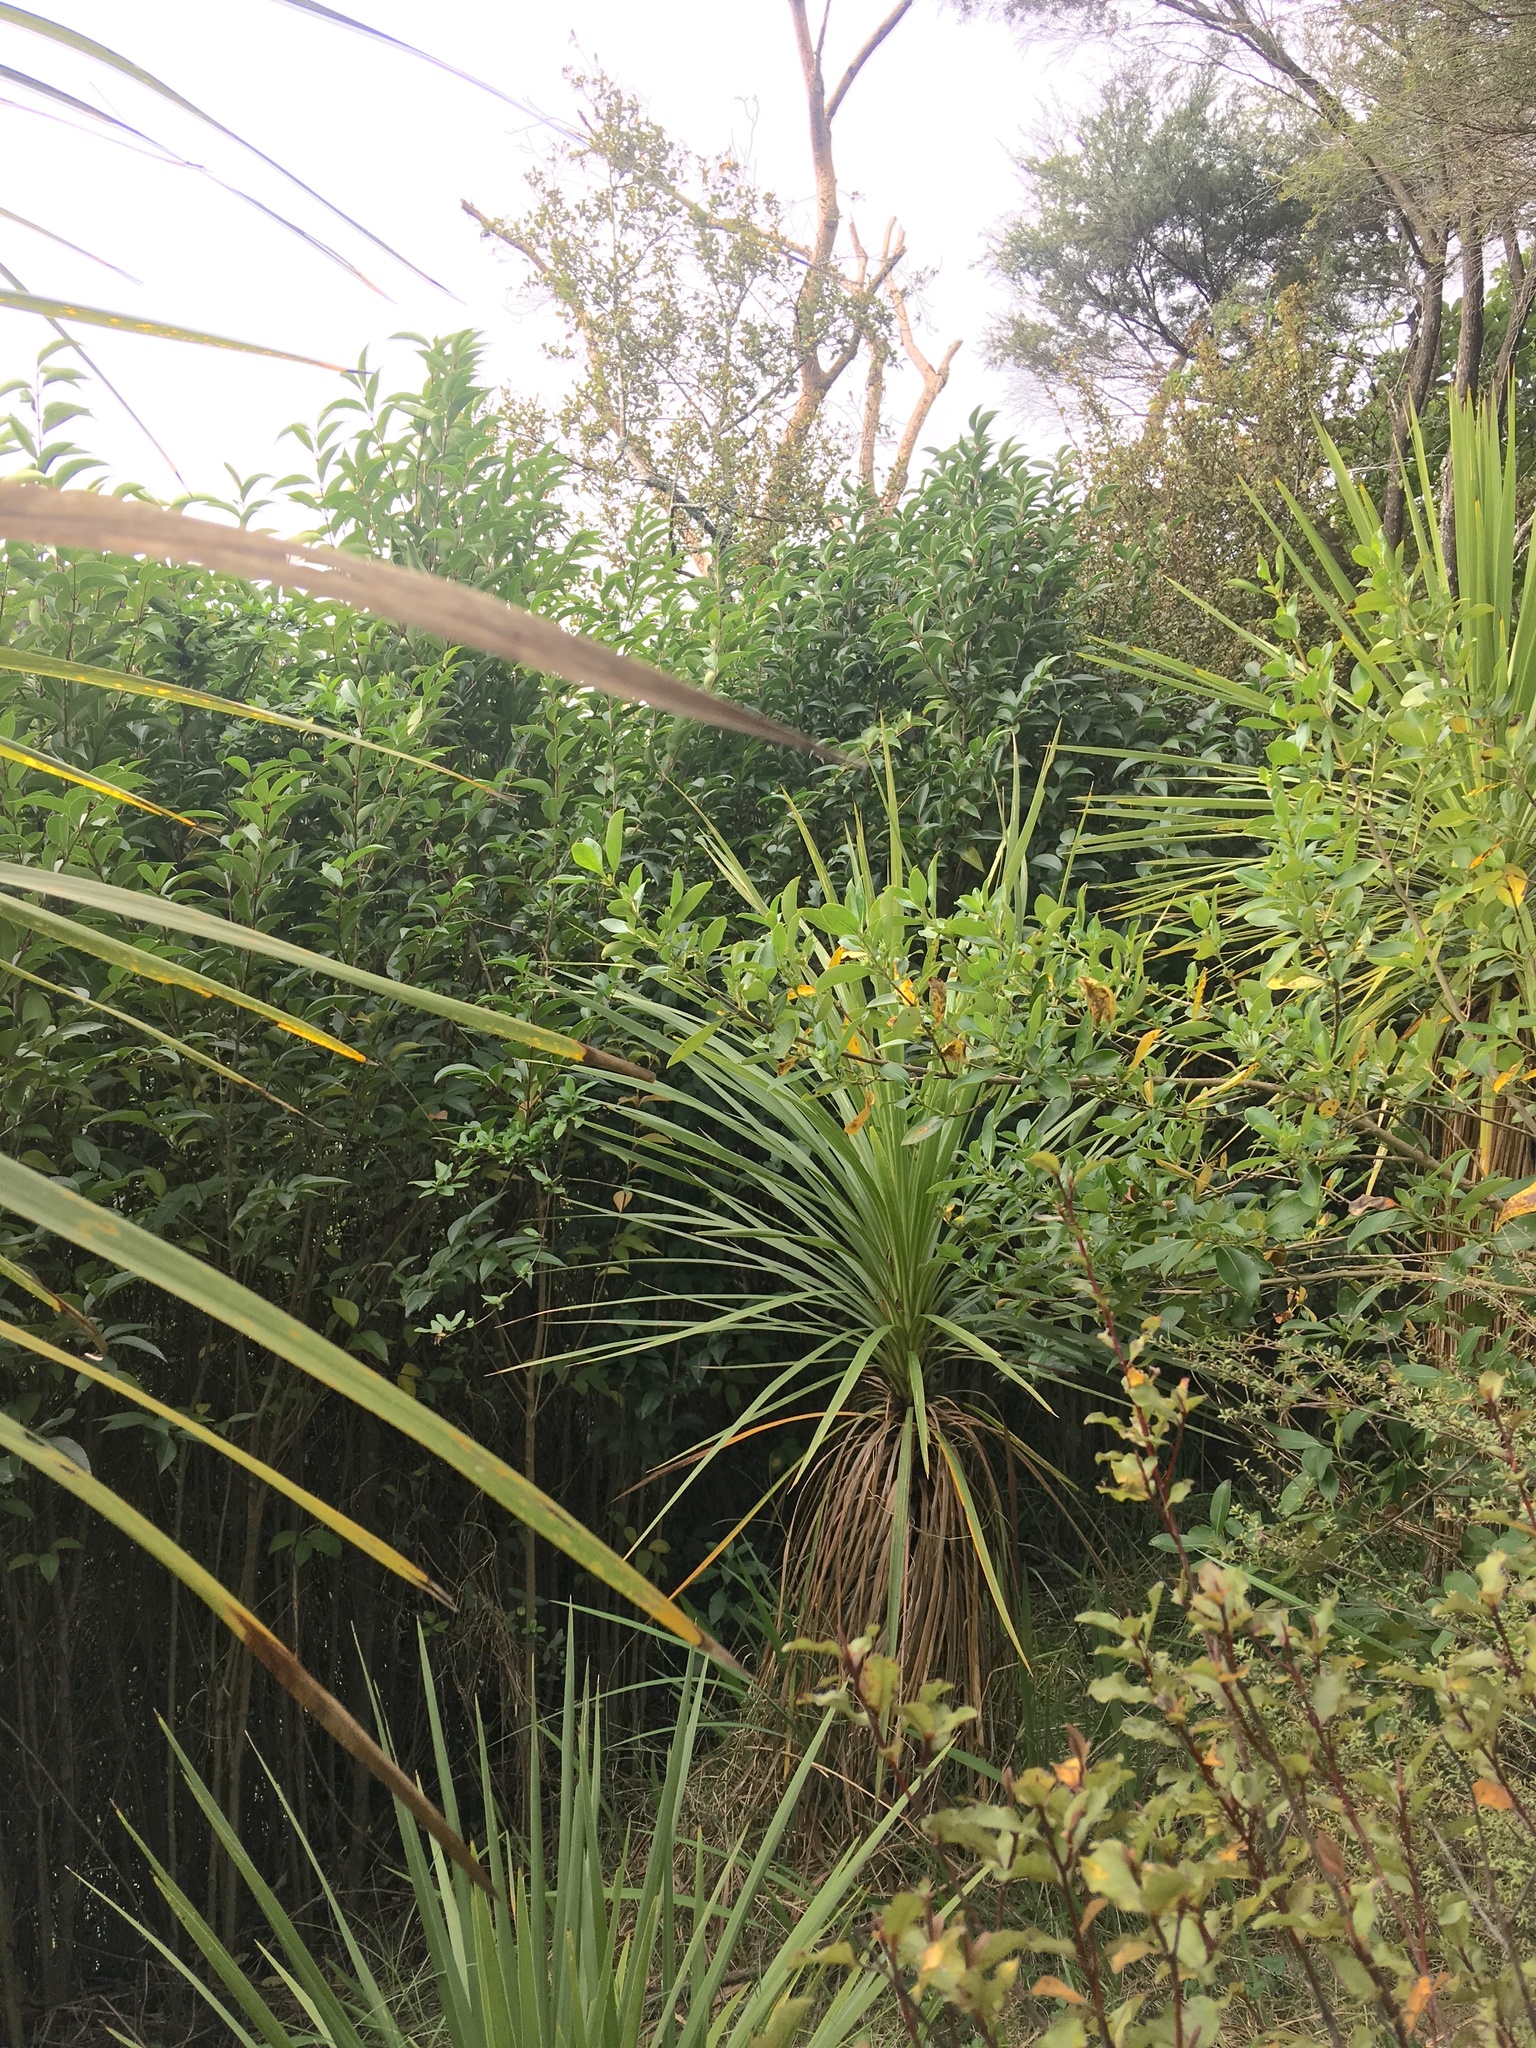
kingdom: Plantae
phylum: Tracheophyta
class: Liliopsida
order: Asparagales
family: Asparagaceae
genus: Cordyline
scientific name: Cordyline australis
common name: Cabbage-palm
